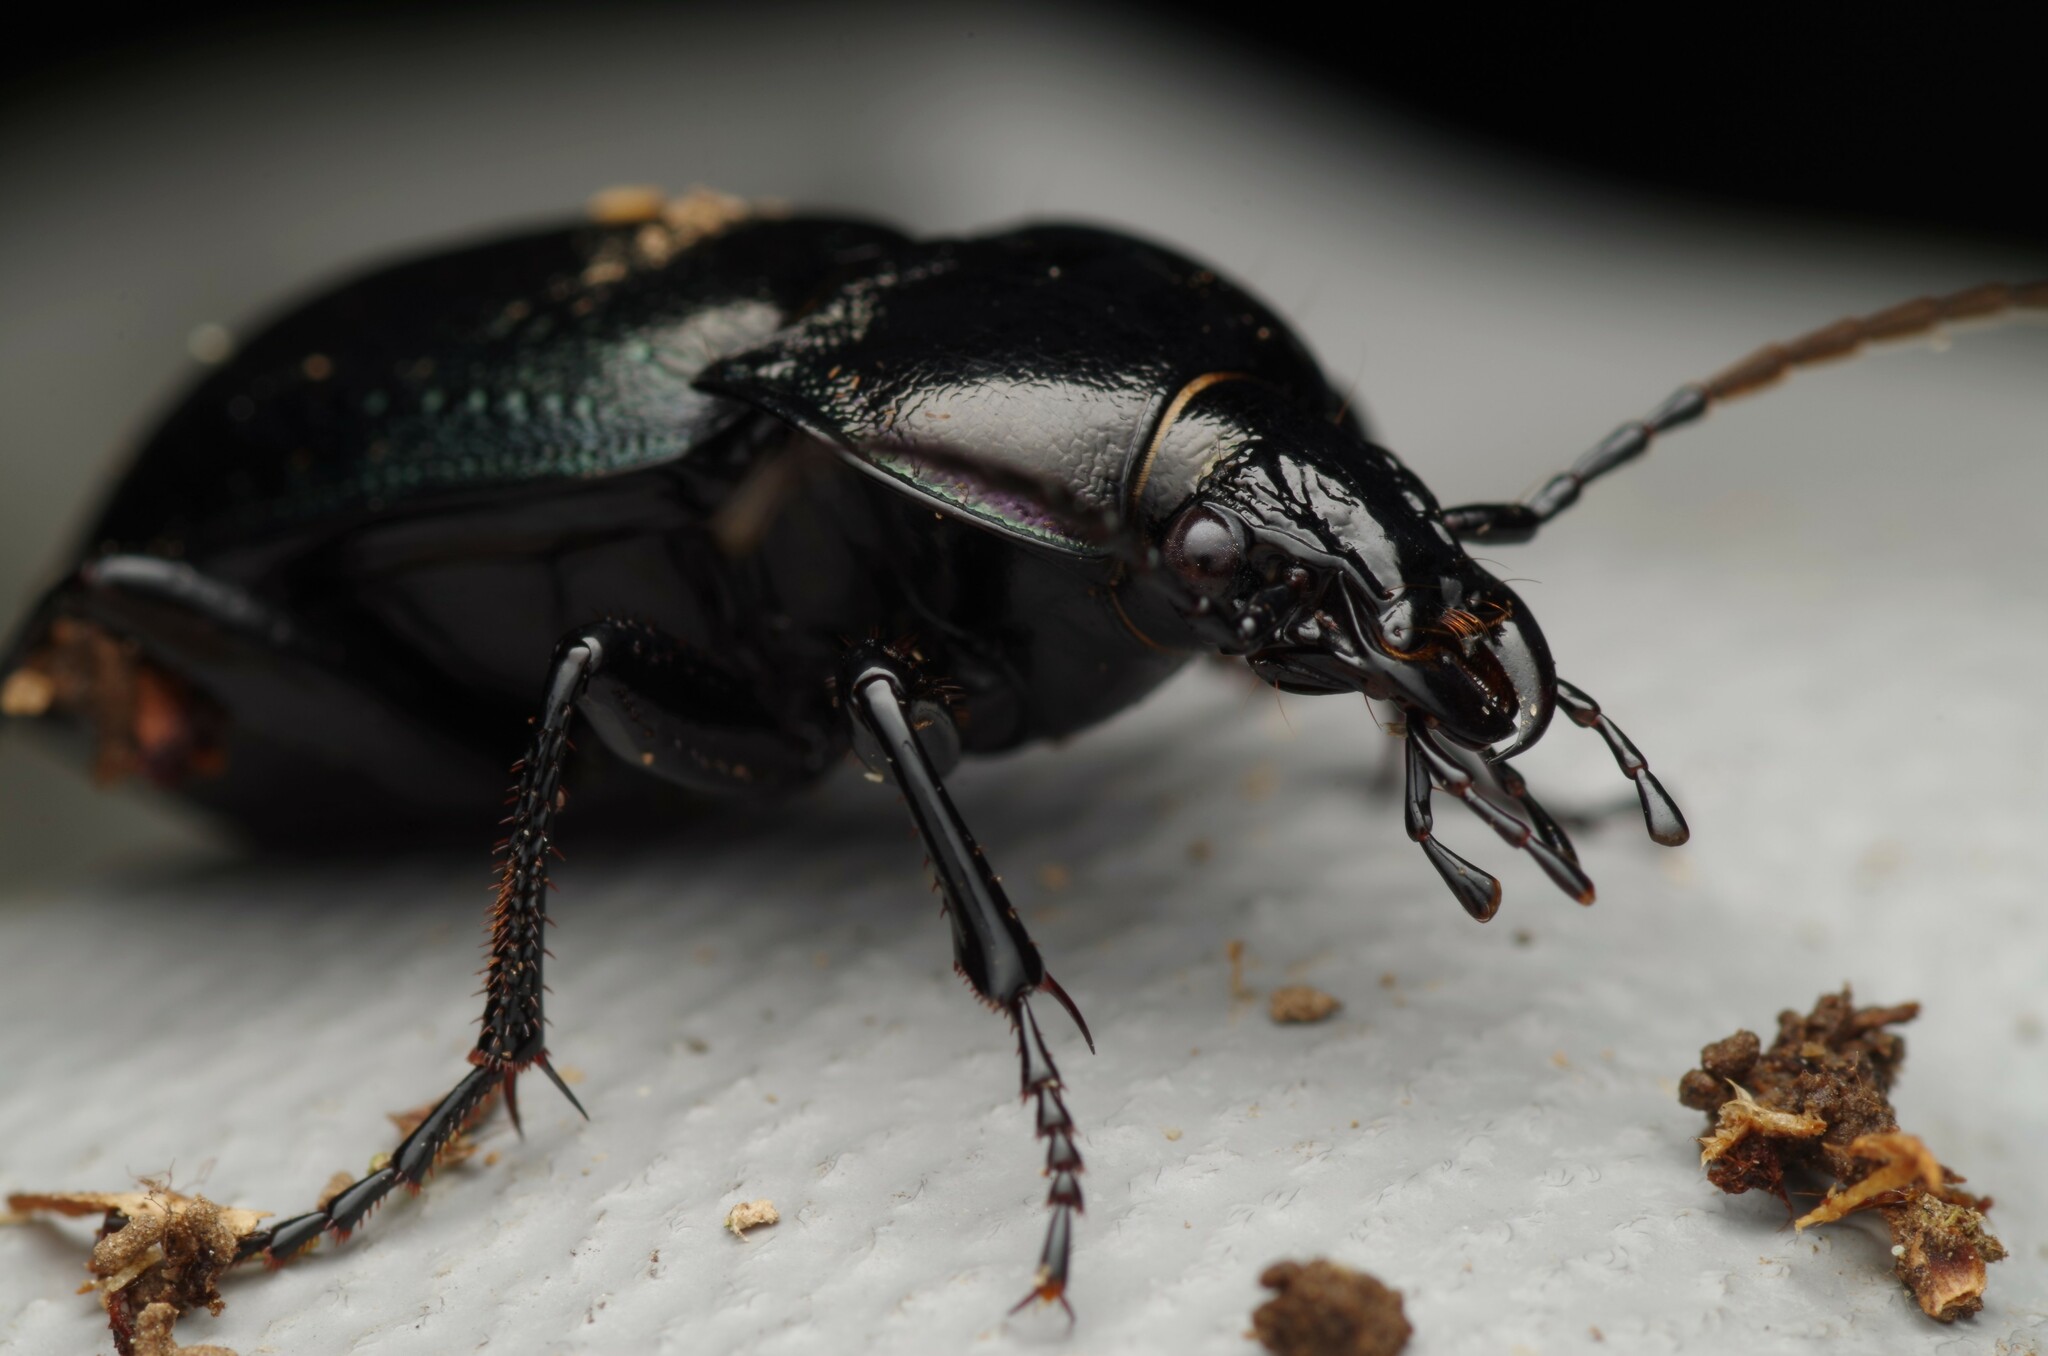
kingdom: Animalia
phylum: Arthropoda
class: Insecta
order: Coleoptera
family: Carabidae
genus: Carabus
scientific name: Carabus nemoralis
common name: European ground beetle
